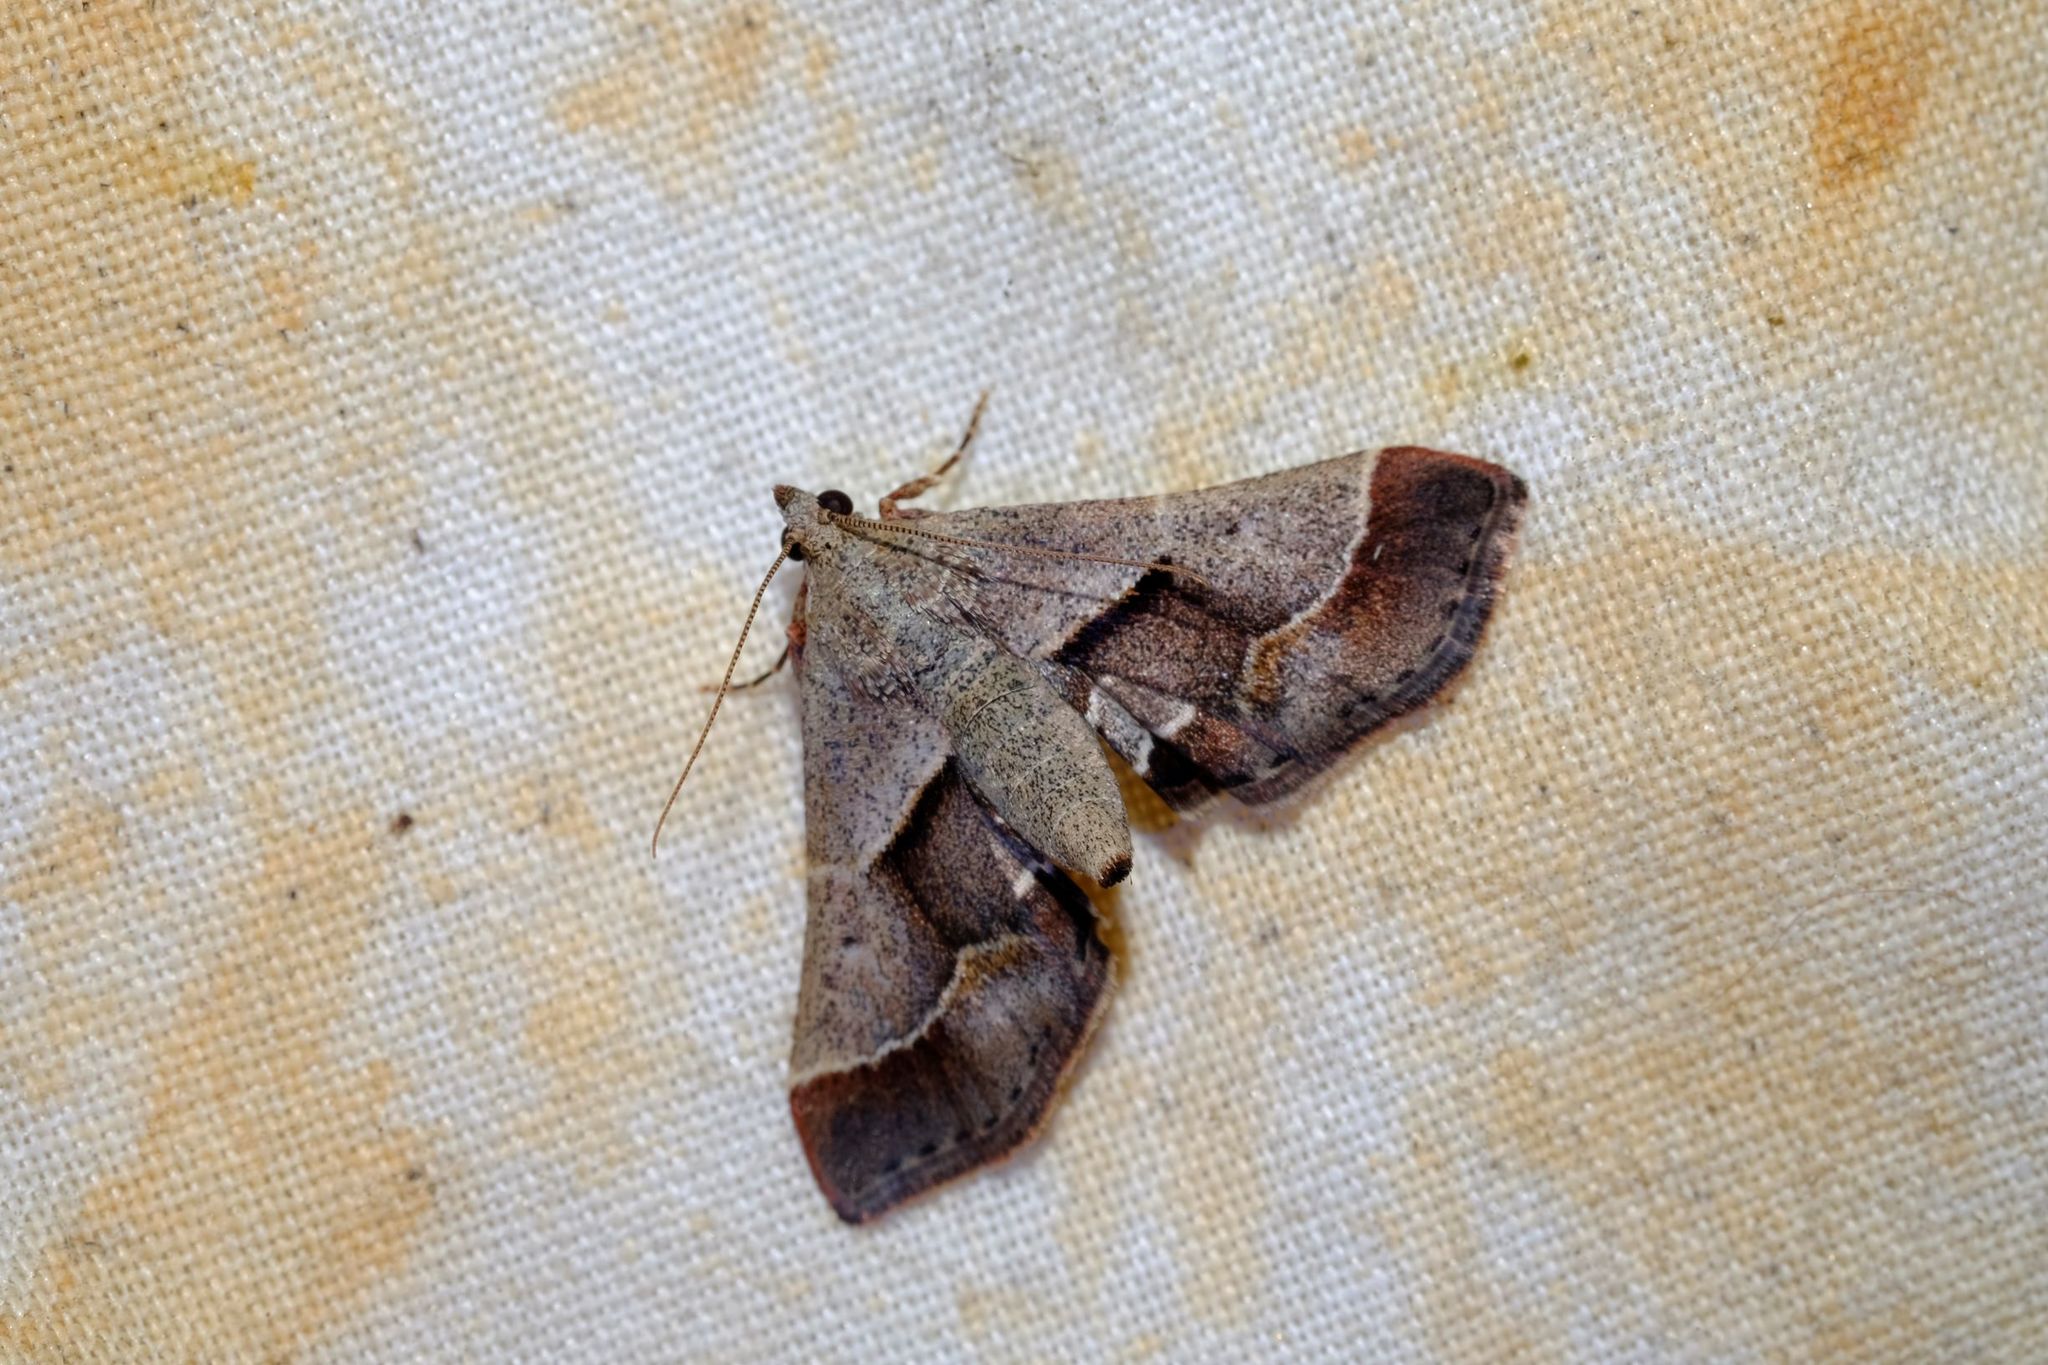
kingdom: Animalia
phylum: Arthropoda
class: Insecta
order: Lepidoptera
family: Pyralidae
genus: Gauna
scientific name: Gauna aegusalis
